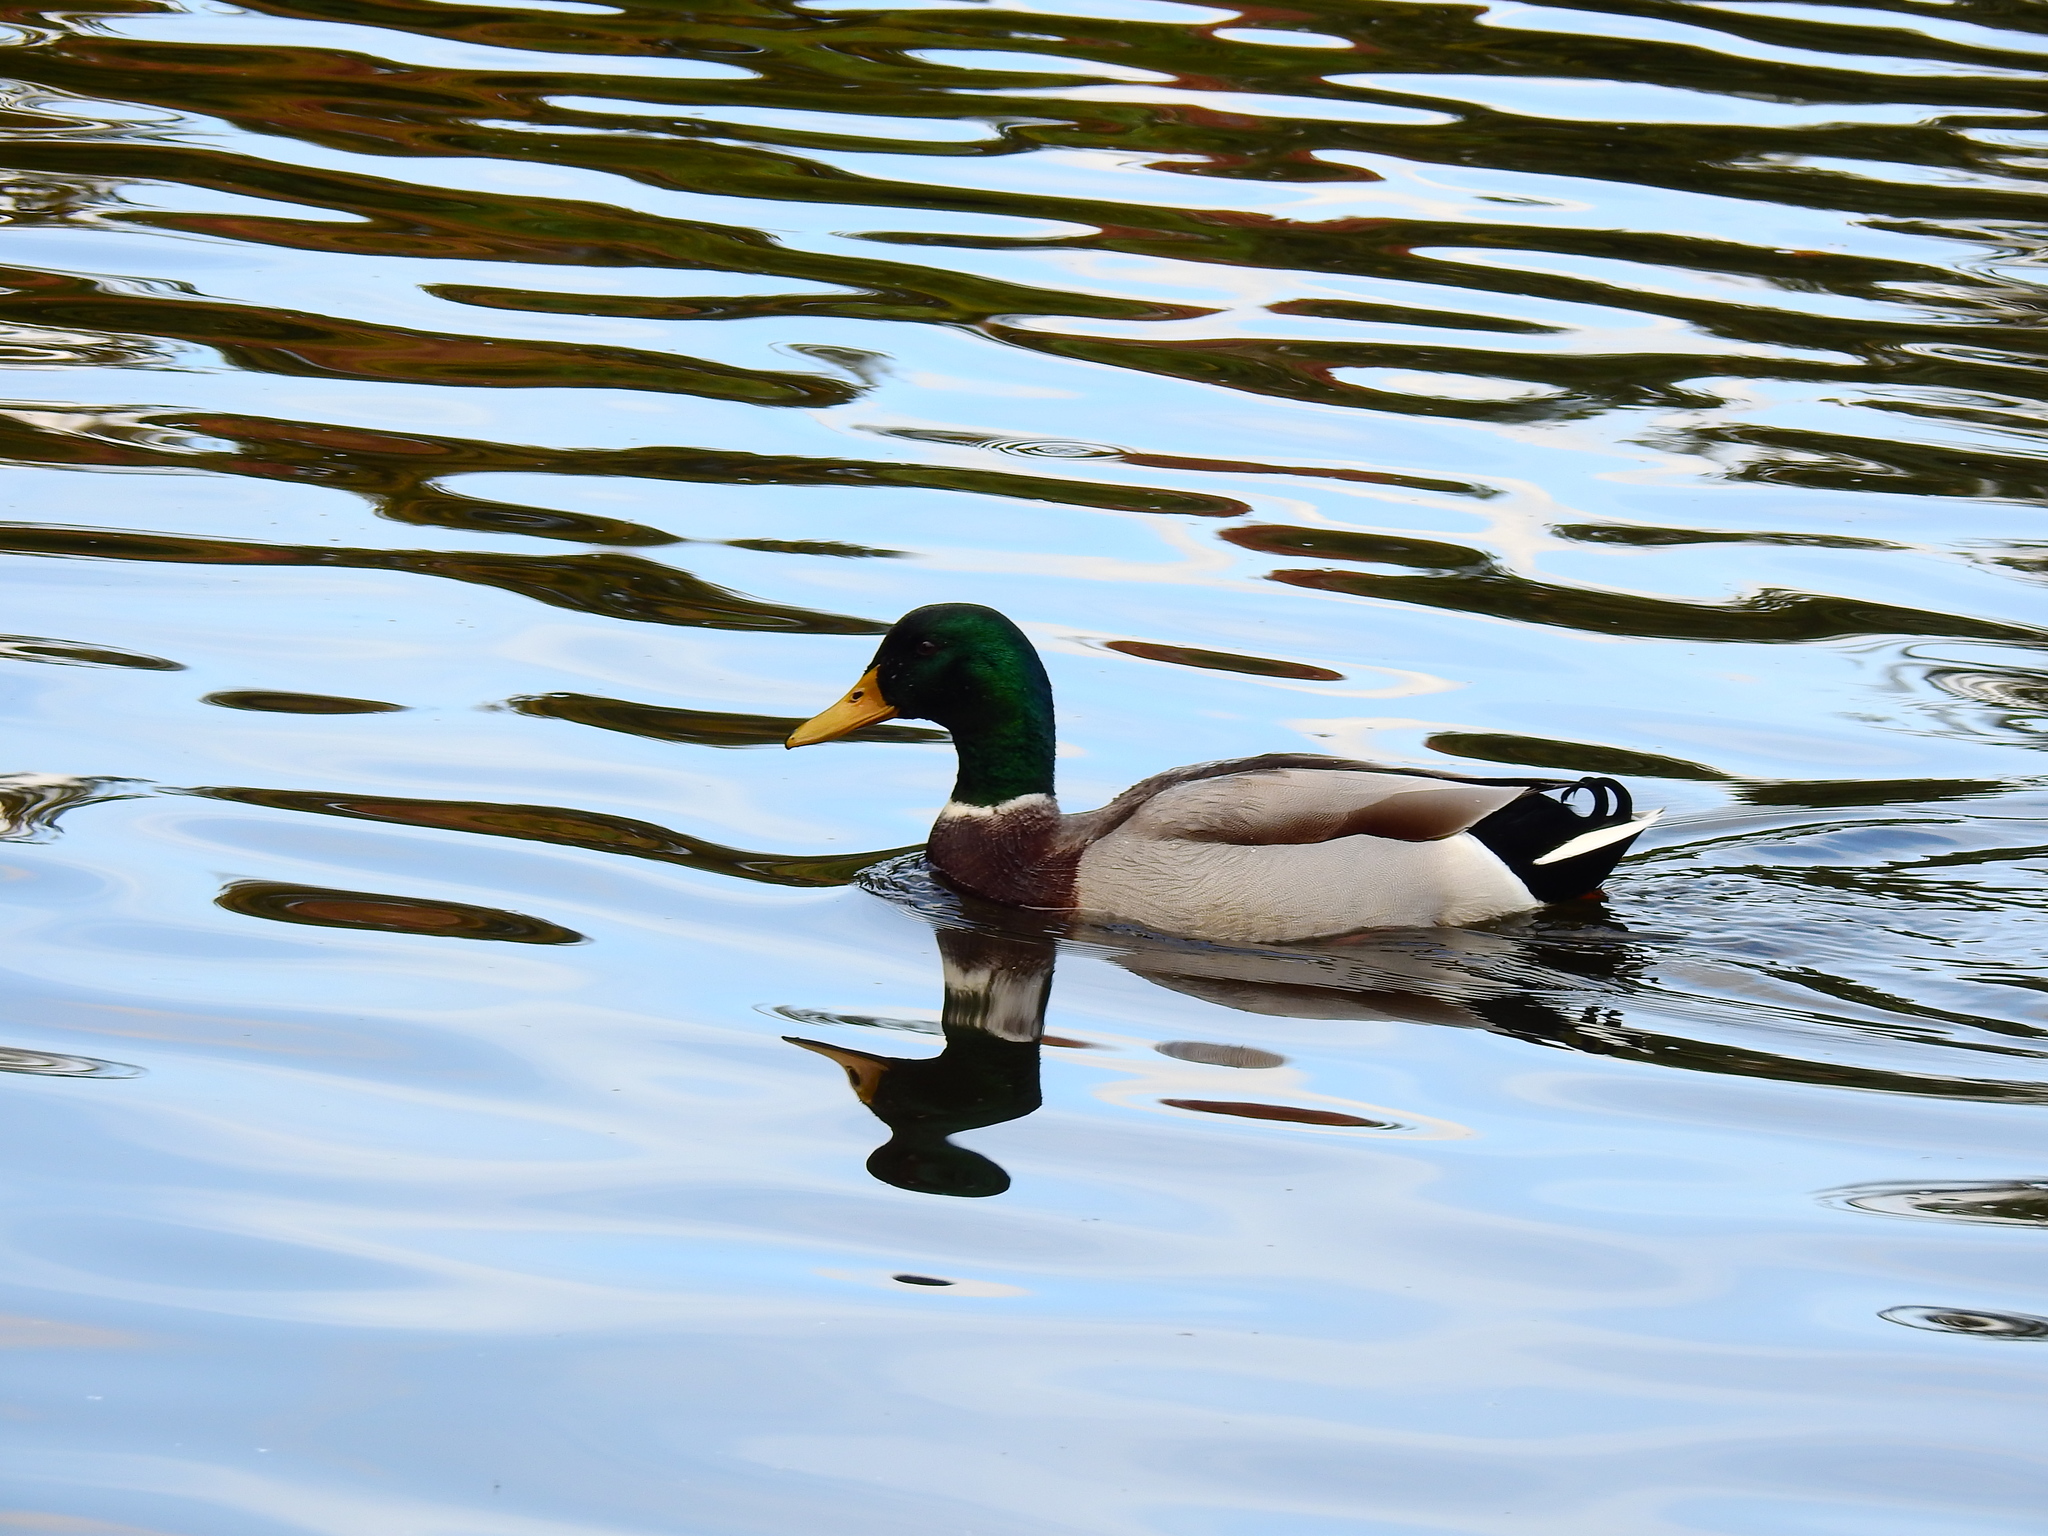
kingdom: Animalia
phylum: Chordata
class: Aves
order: Anseriformes
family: Anatidae
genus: Anas
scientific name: Anas platyrhynchos
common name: Mallard
